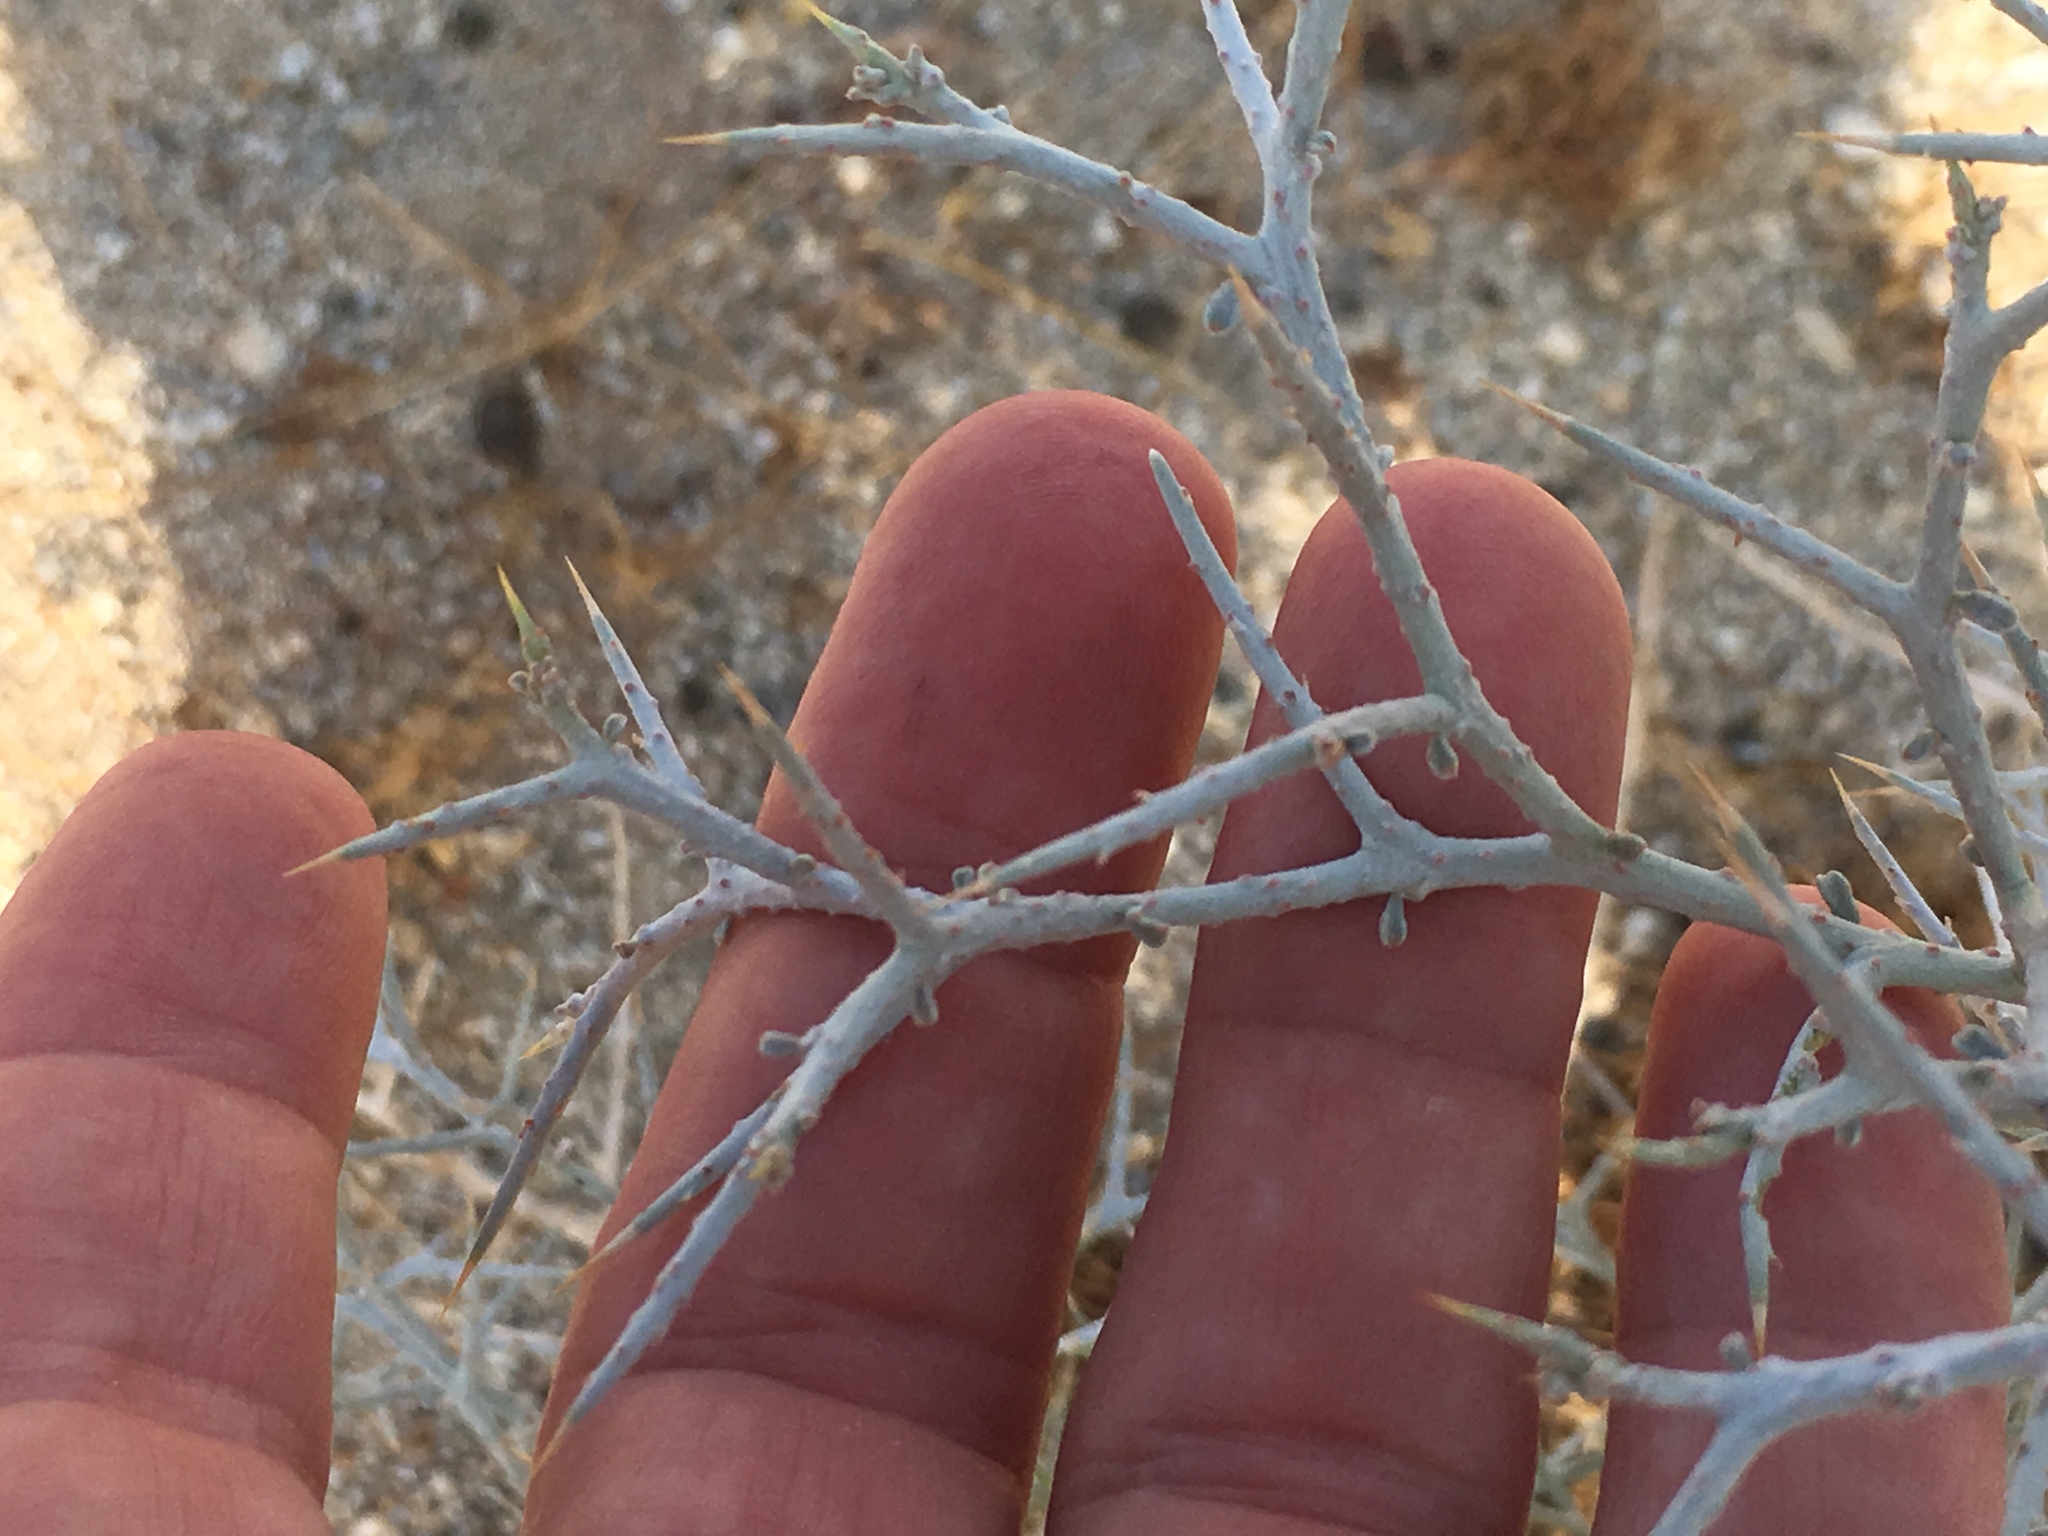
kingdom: Plantae
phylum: Tracheophyta
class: Magnoliopsida
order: Fabales
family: Fabaceae
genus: Psorothamnus
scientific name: Psorothamnus spinosus
